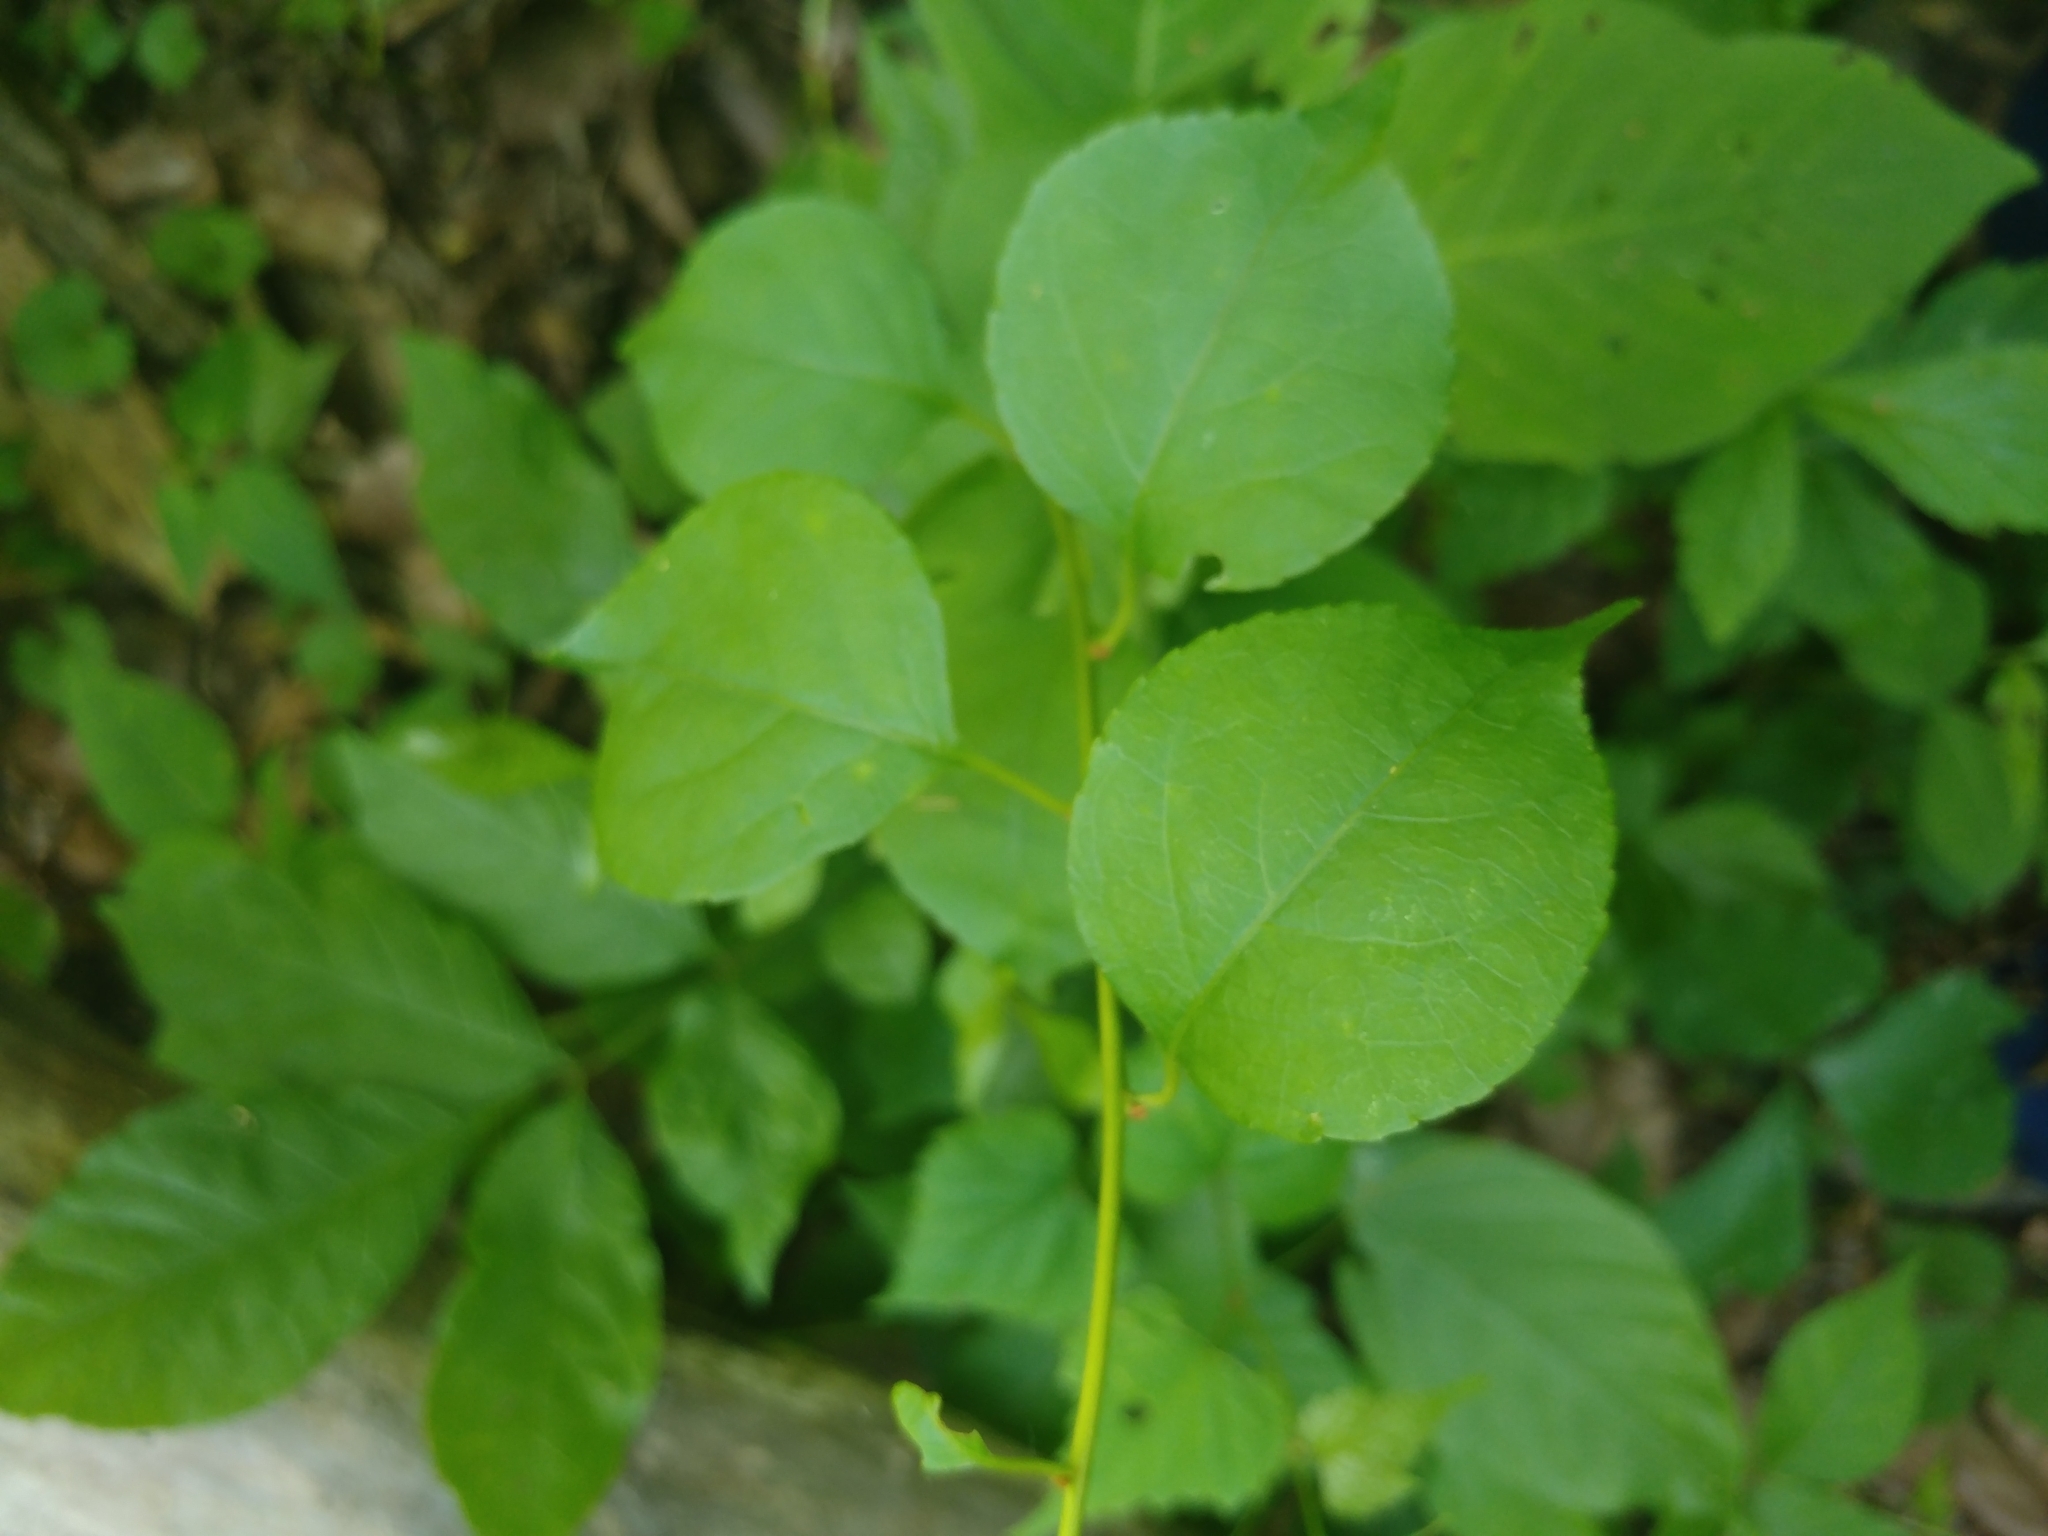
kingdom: Plantae
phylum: Tracheophyta
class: Magnoliopsida
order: Celastrales
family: Celastraceae
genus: Celastrus
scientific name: Celastrus orbiculatus
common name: Oriental bittersweet
